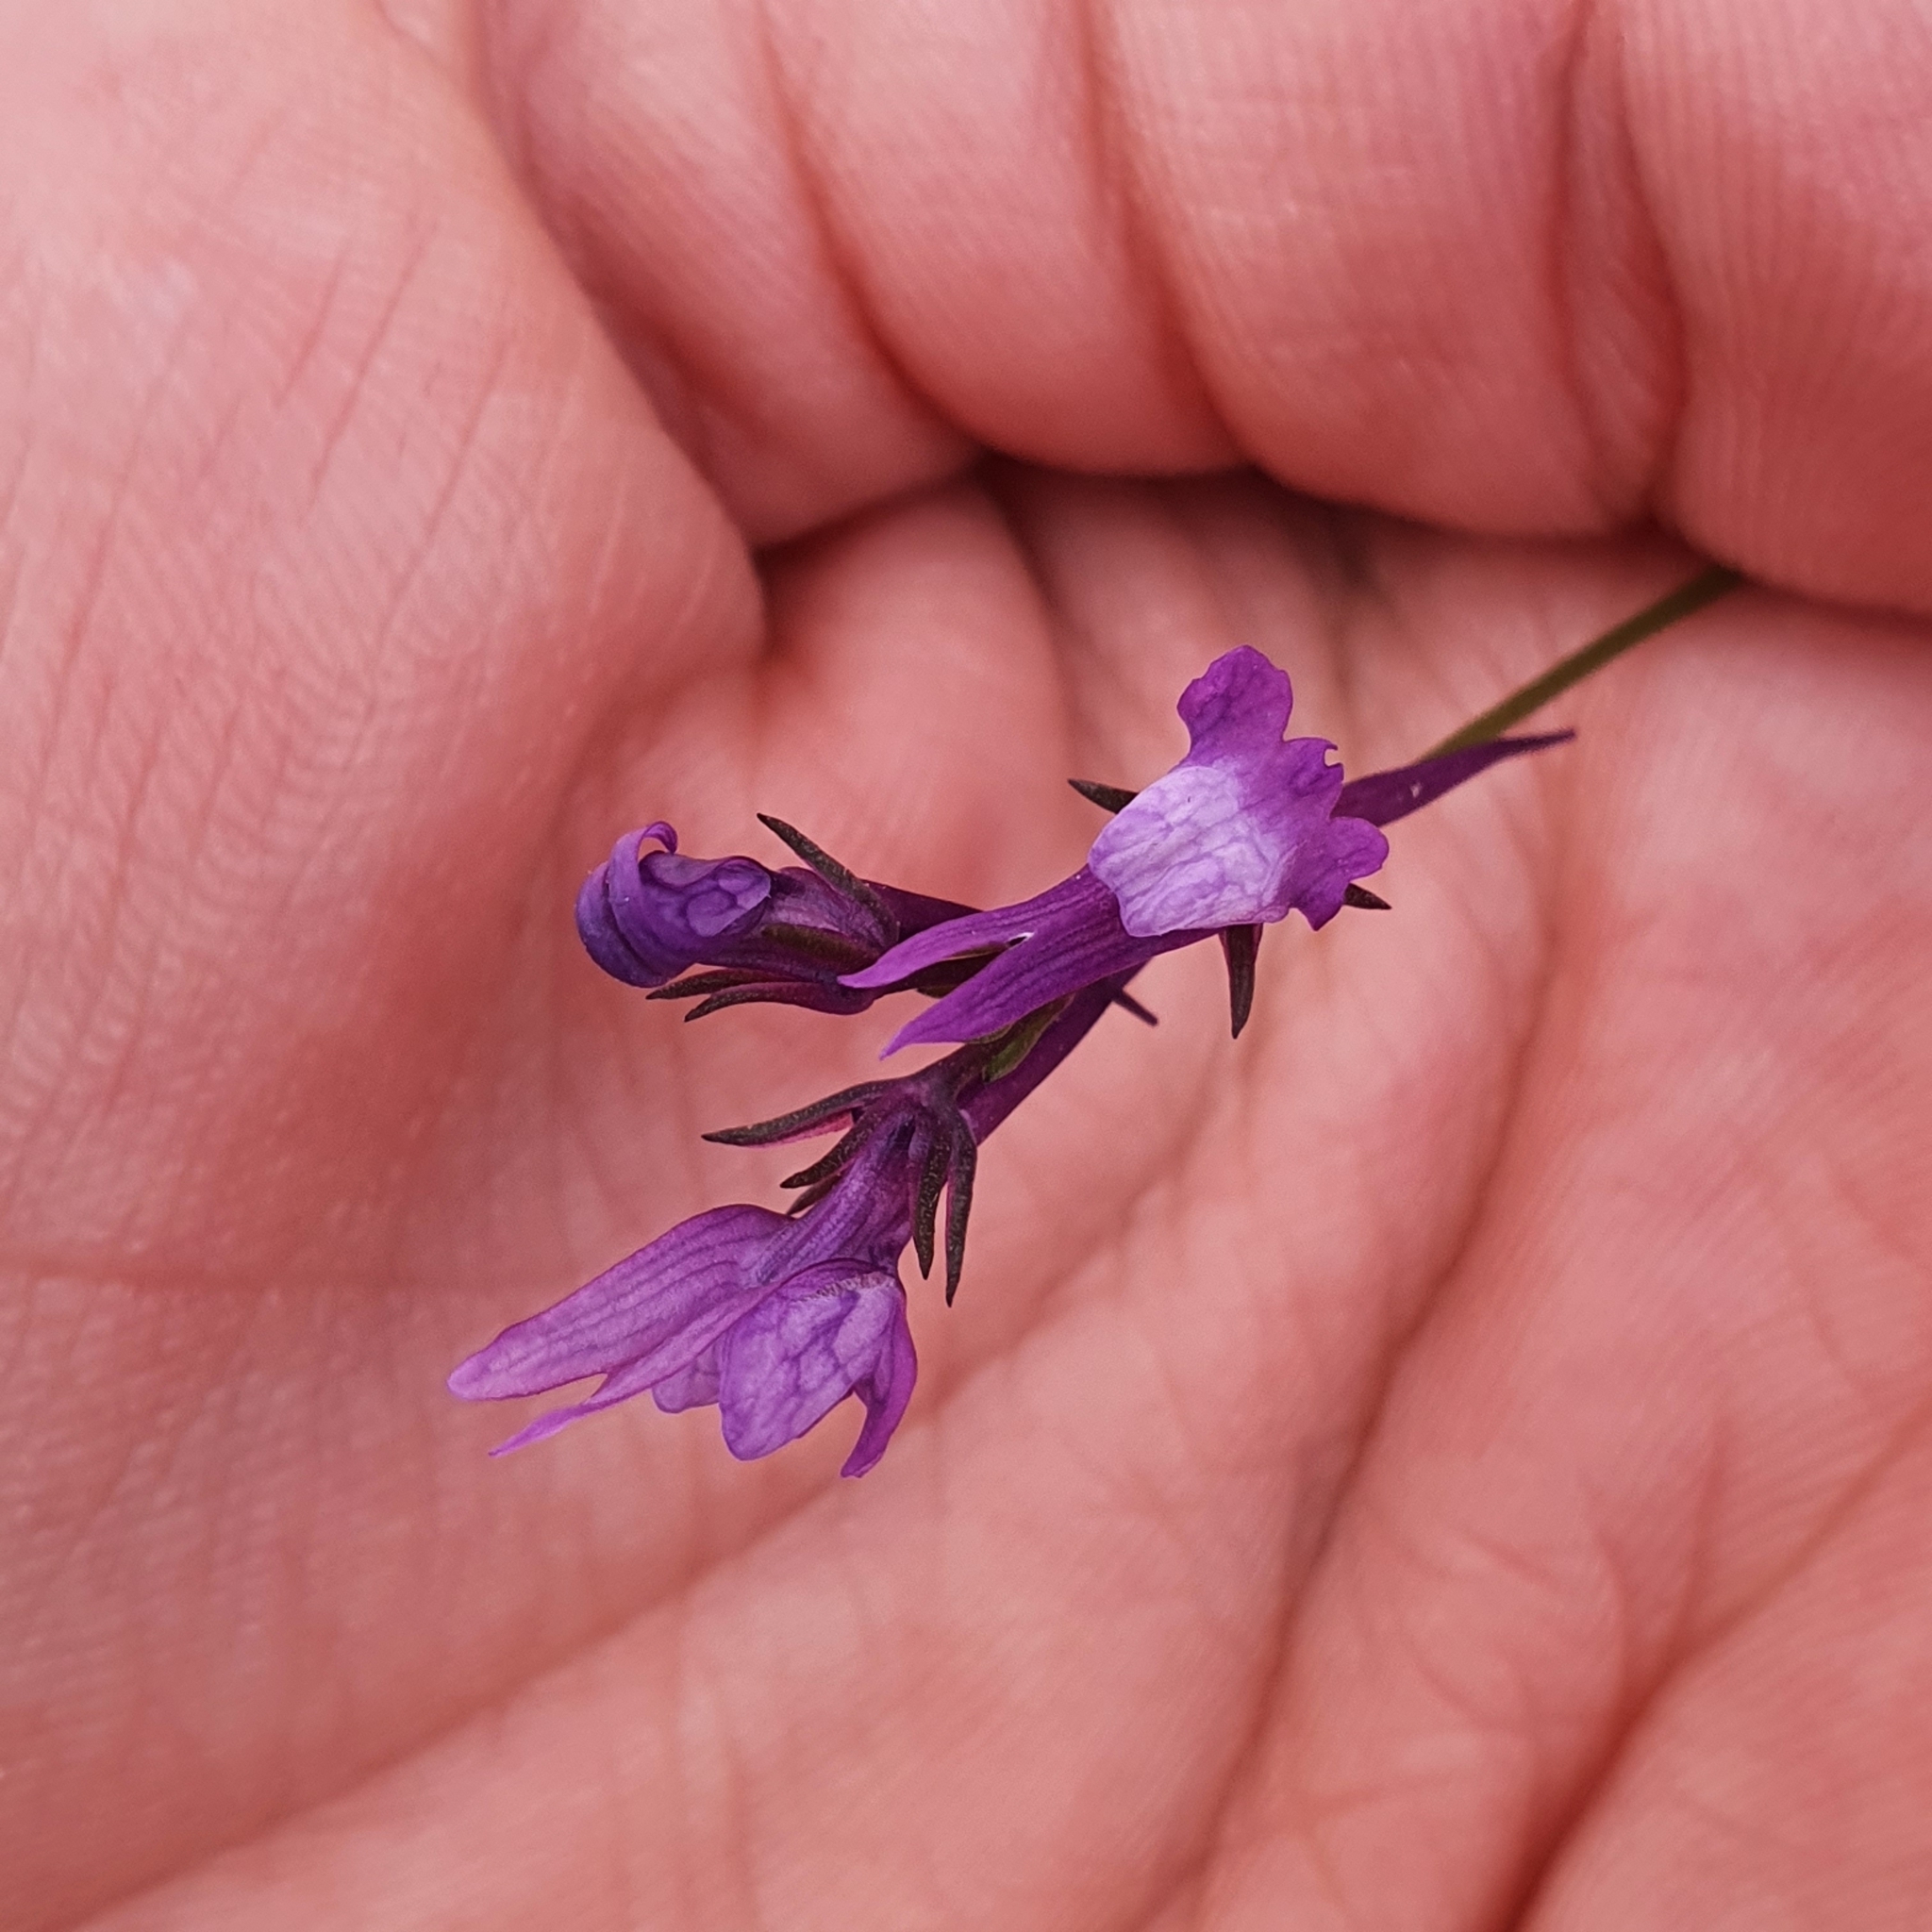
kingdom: Plantae
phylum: Tracheophyta
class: Magnoliopsida
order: Lamiales
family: Plantaginaceae
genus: Linaria
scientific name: Linaria pelisseriana
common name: Jersey toadflax
